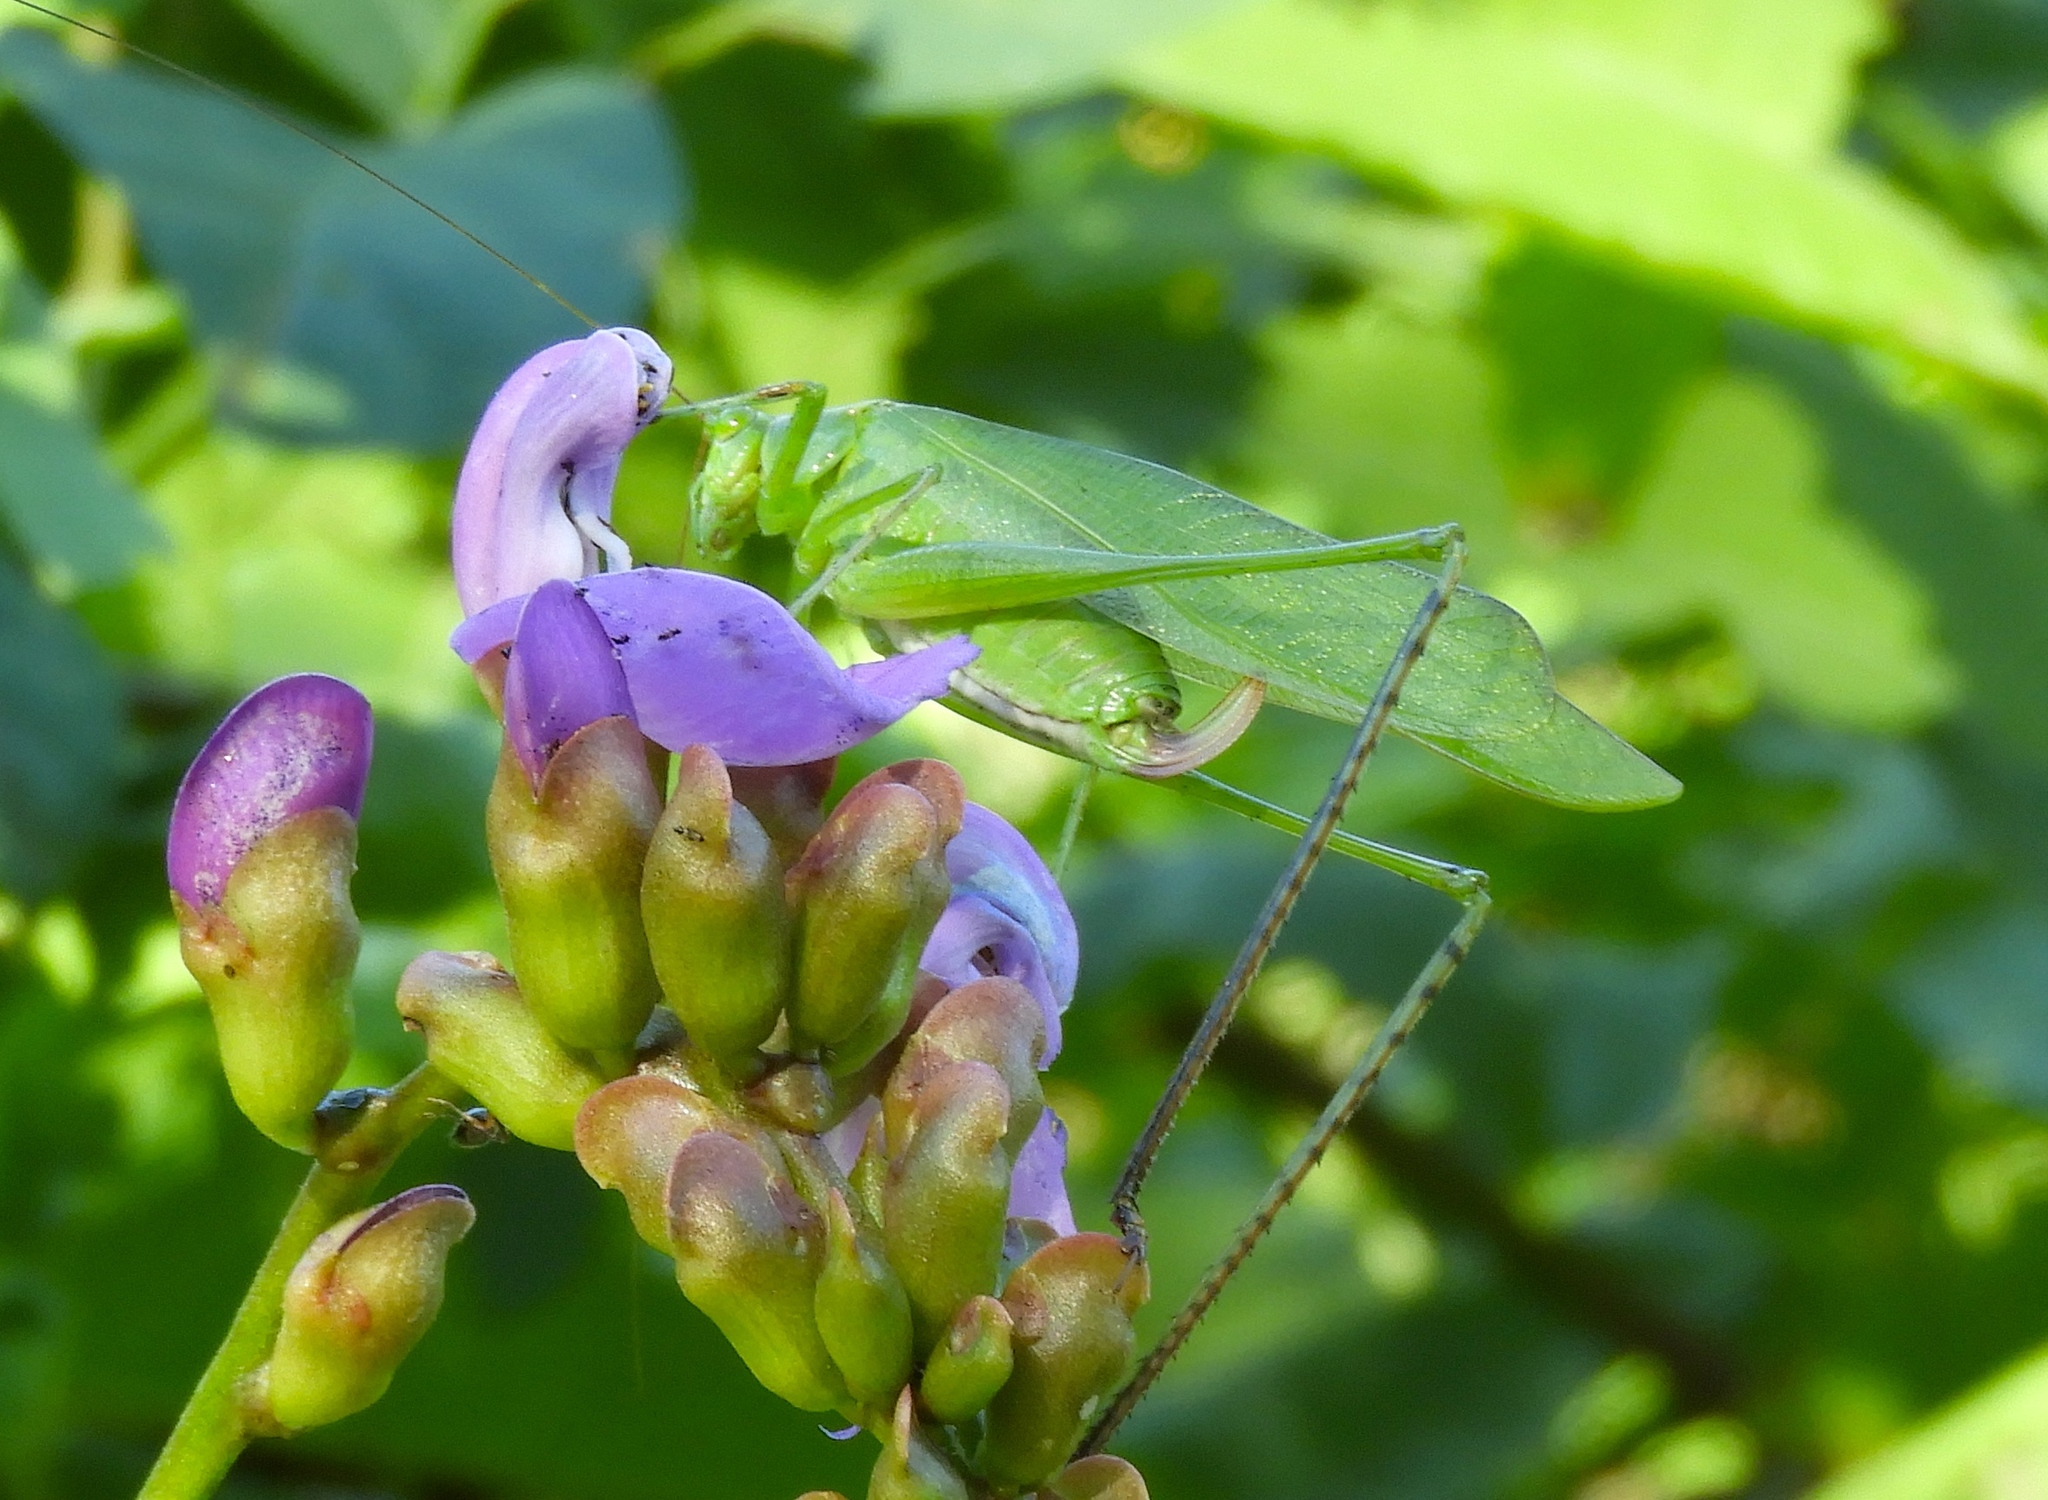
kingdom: Animalia
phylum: Arthropoda
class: Insecta
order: Orthoptera
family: Tettigoniidae
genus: Scudderia
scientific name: Scudderia
